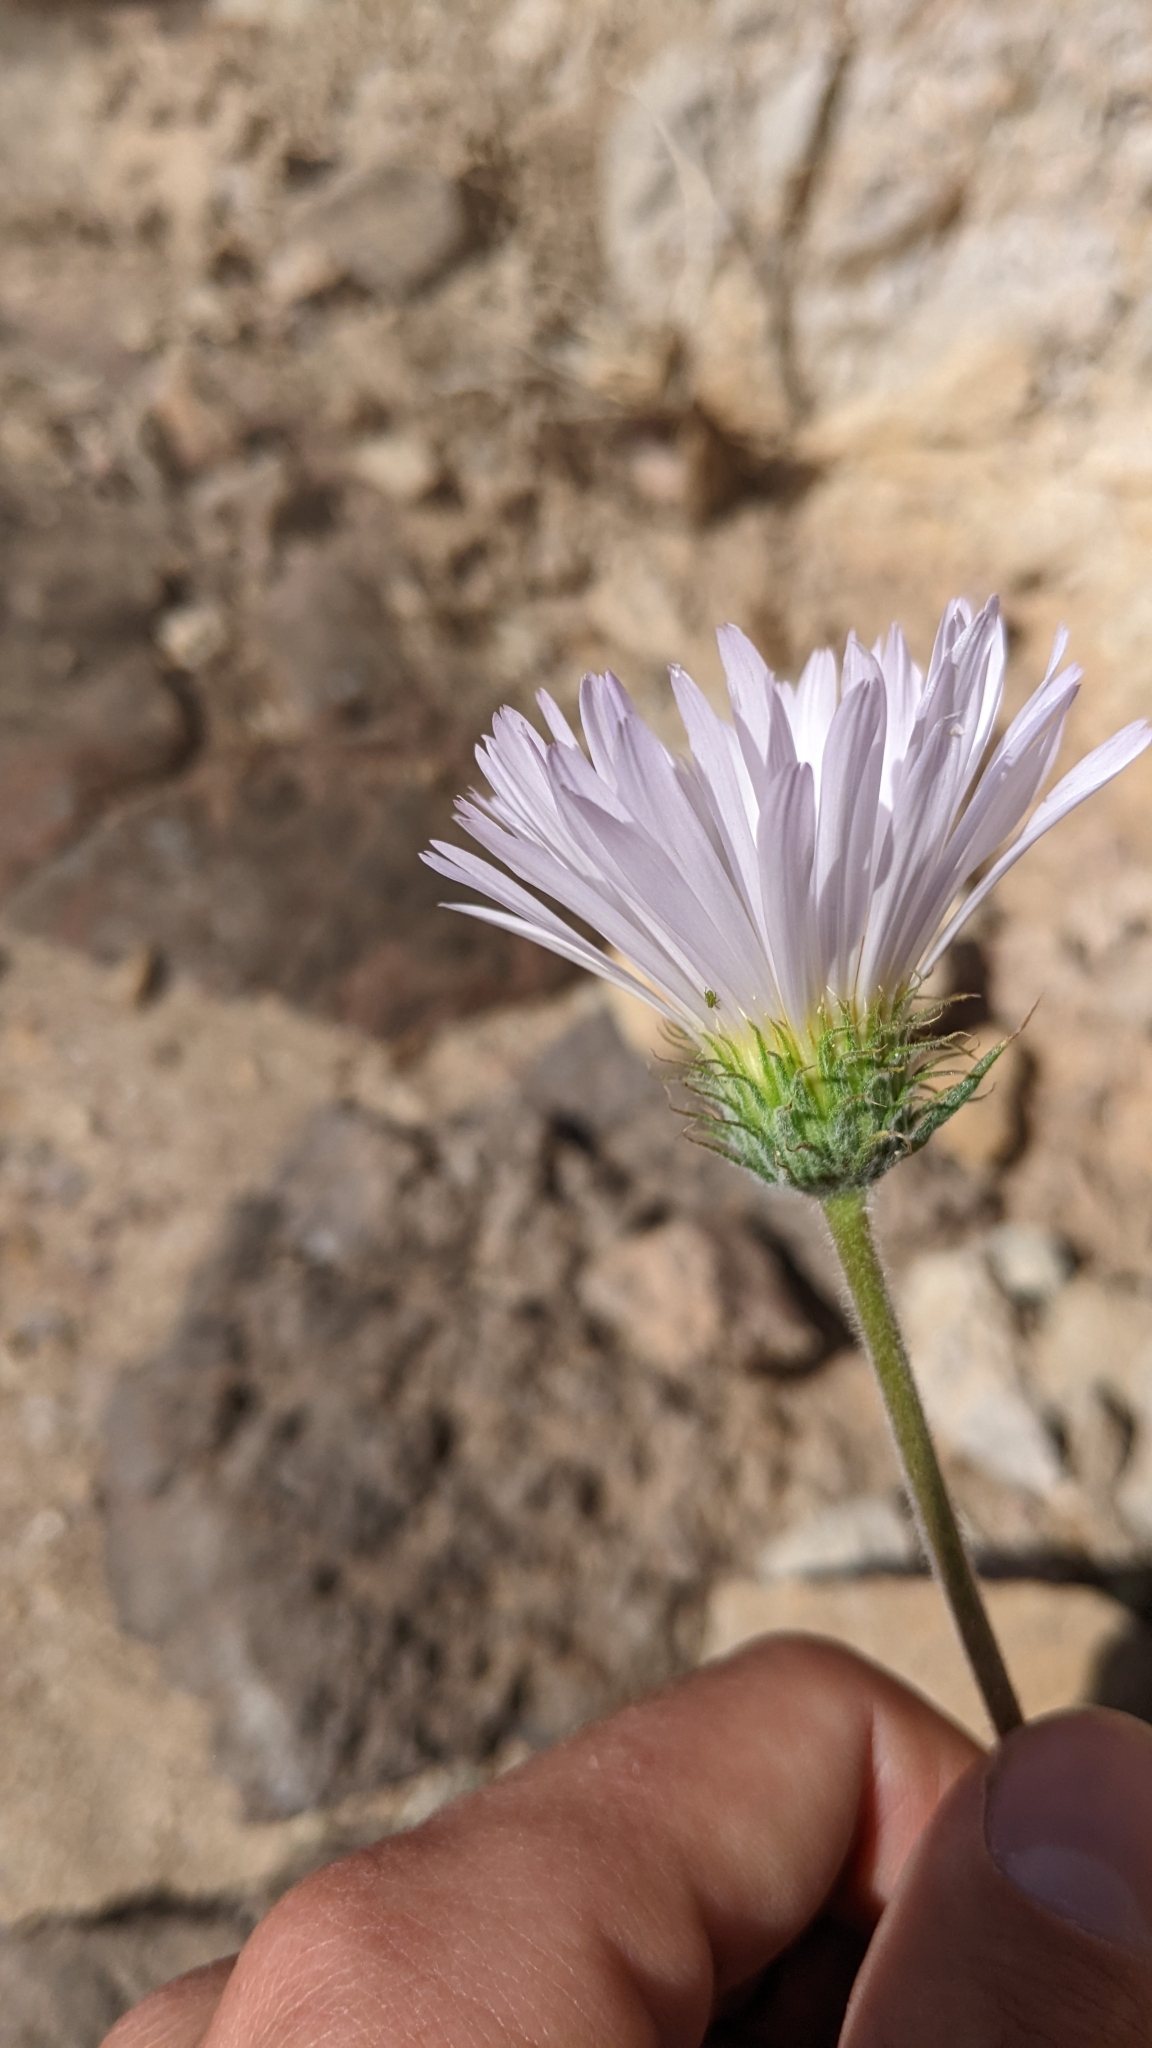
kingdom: Plantae
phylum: Tracheophyta
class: Magnoliopsida
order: Asterales
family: Asteraceae
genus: Xylorhiza
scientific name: Xylorhiza tortifolia
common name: Hurt-leaf woody-aster
